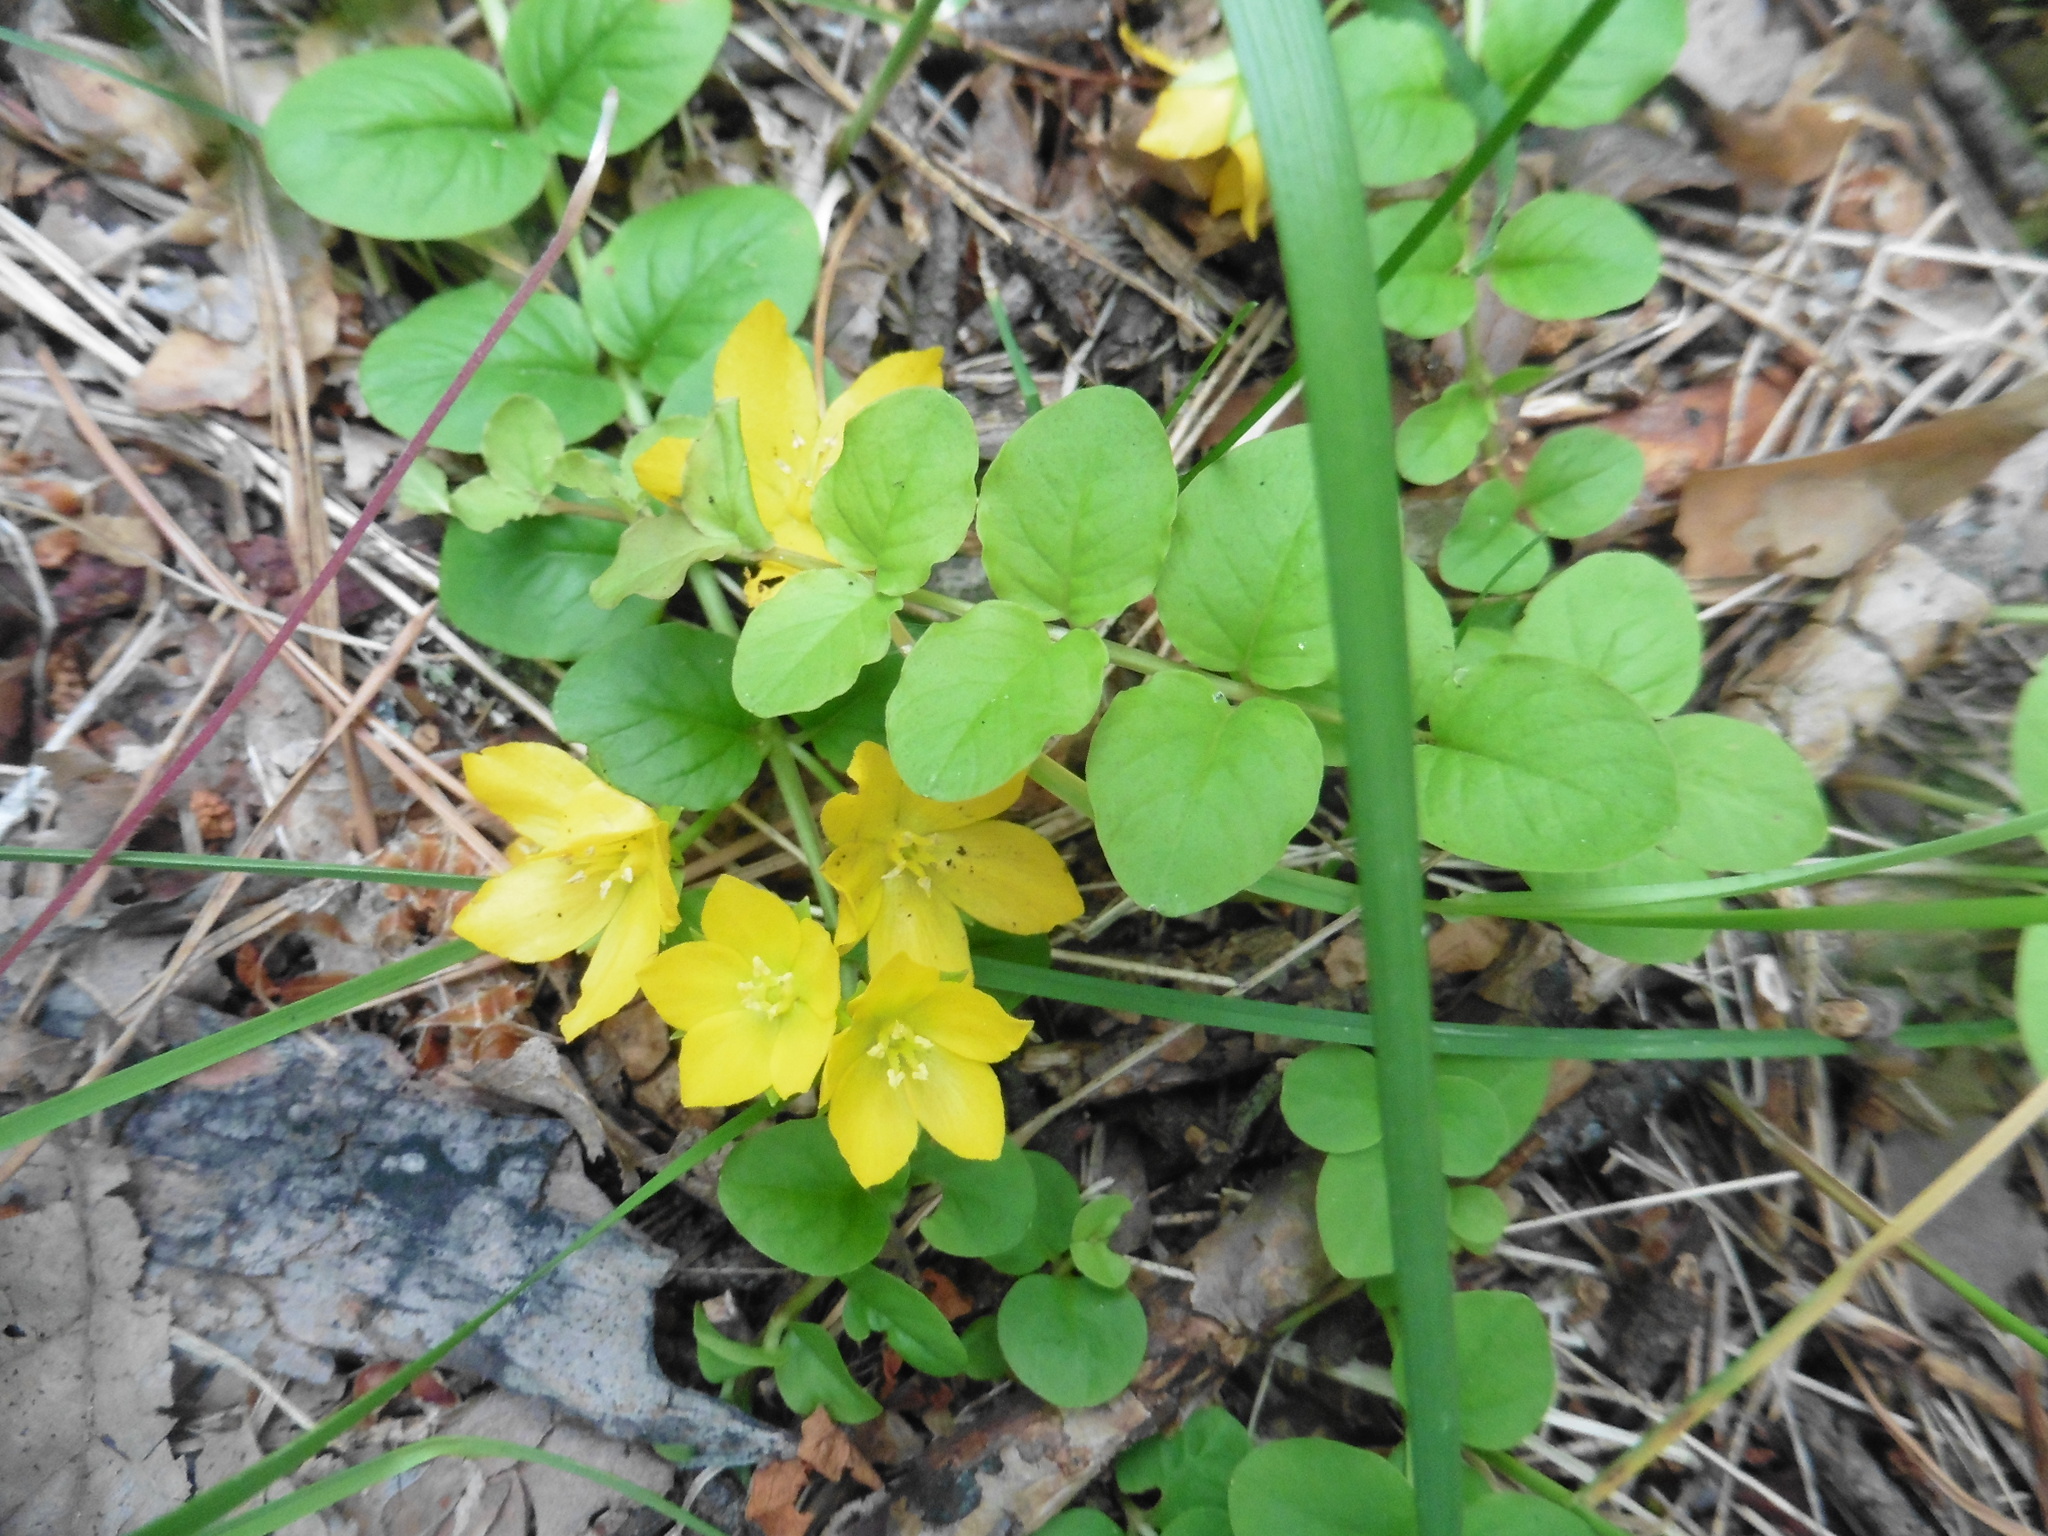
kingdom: Plantae
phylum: Tracheophyta
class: Magnoliopsida
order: Ericales
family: Primulaceae
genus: Lysimachia
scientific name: Lysimachia nummularia
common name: Moneywort
